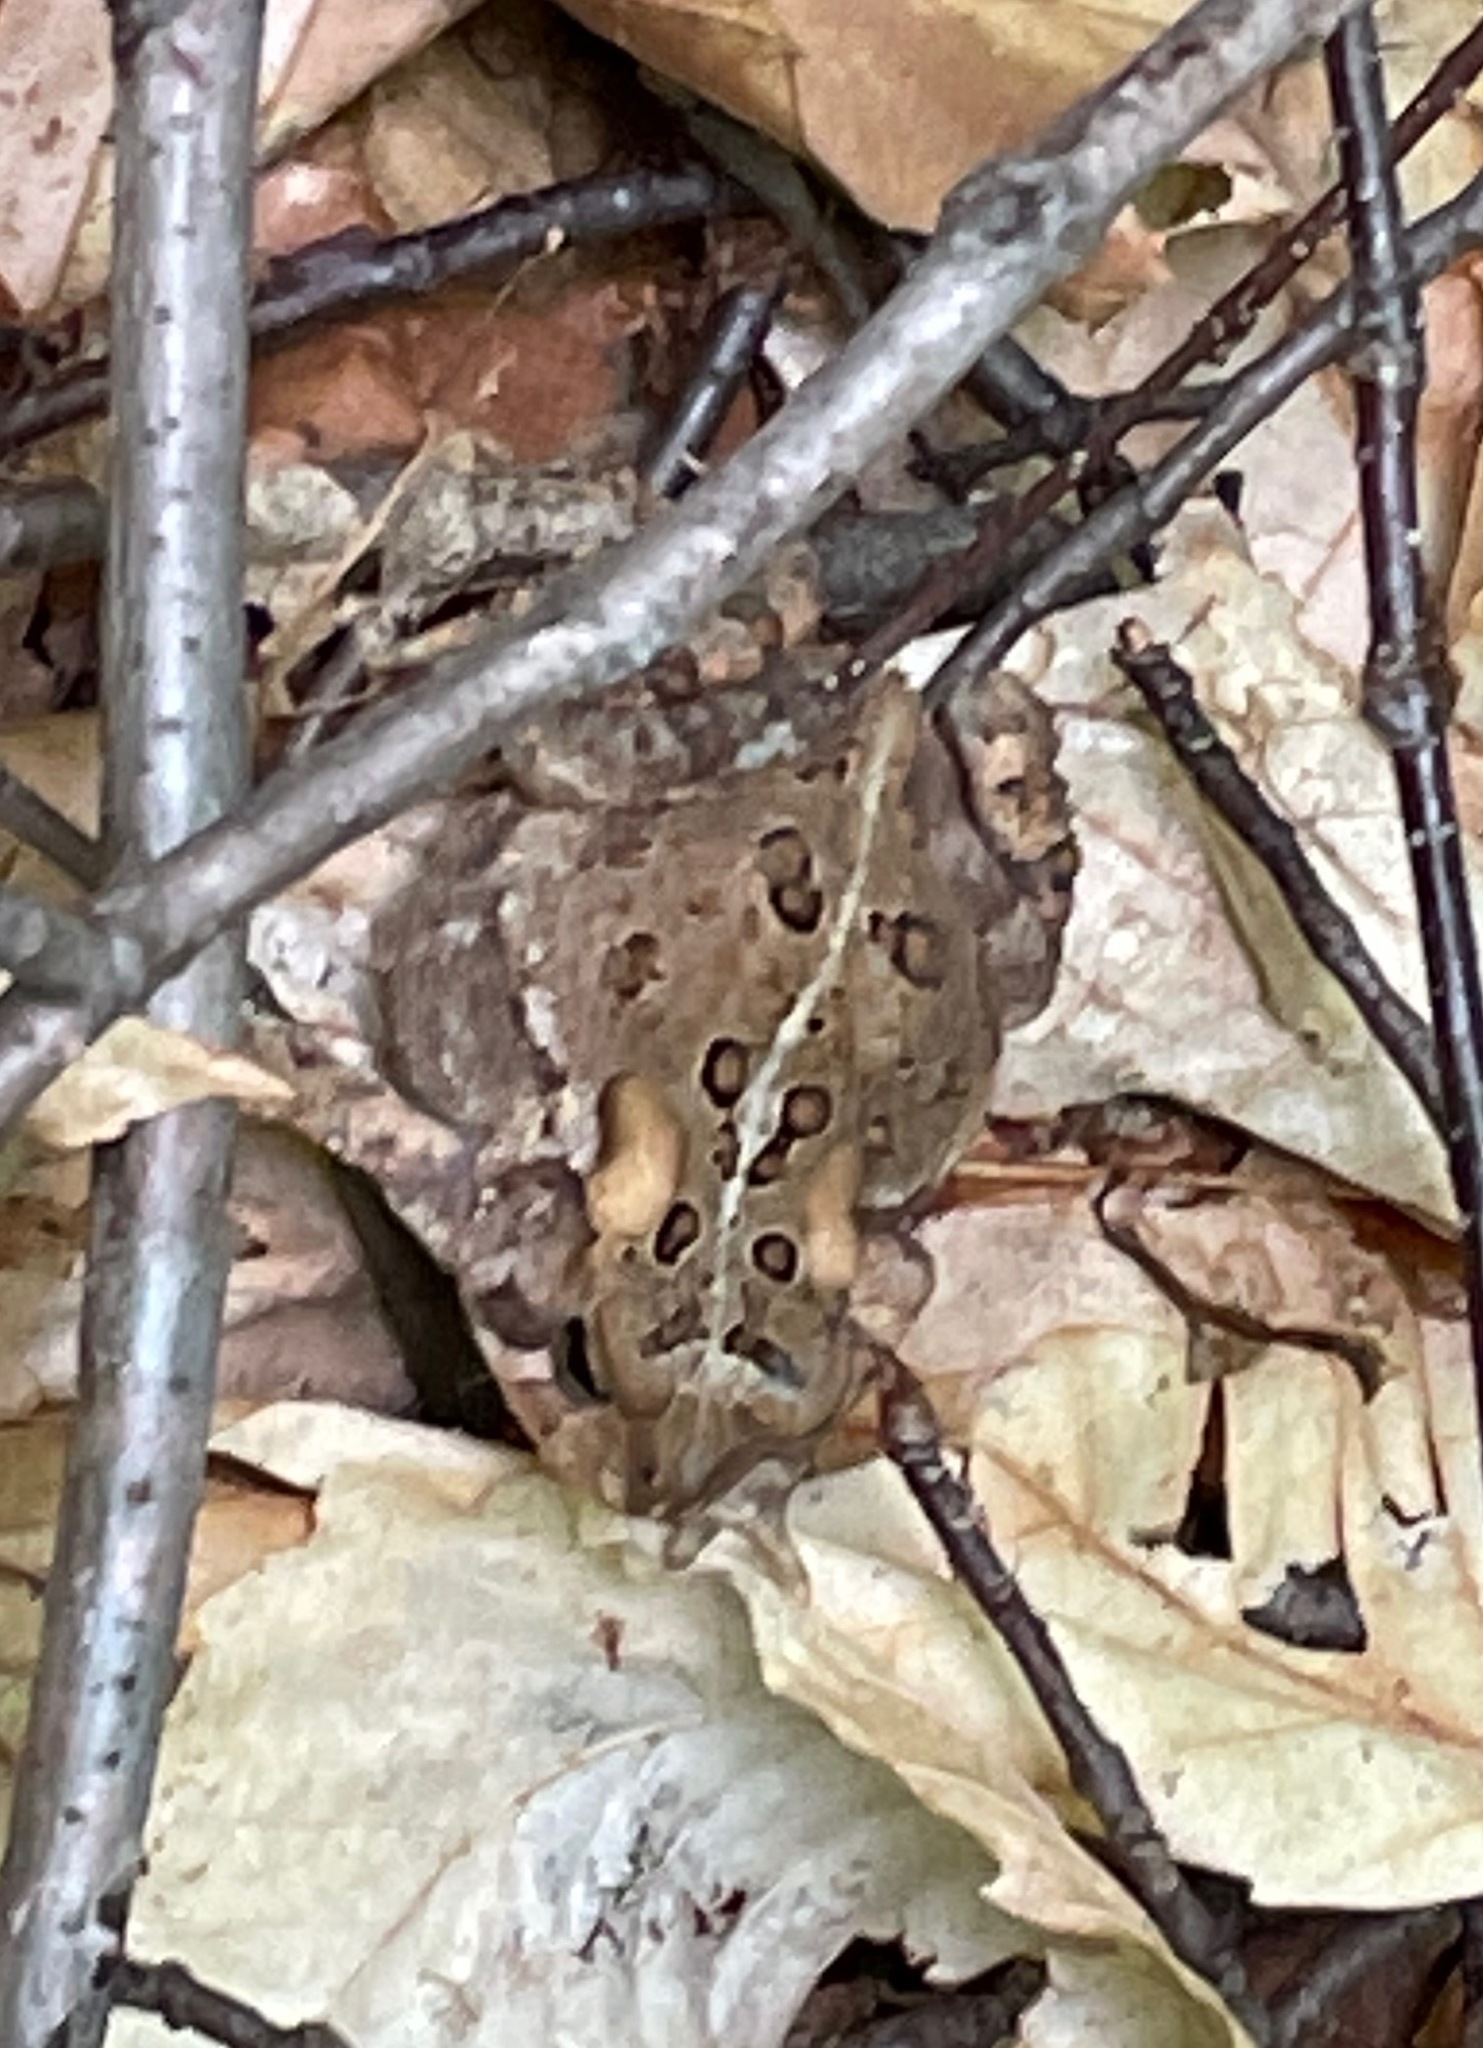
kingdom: Animalia
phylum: Chordata
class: Amphibia
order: Anura
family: Bufonidae
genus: Anaxyrus
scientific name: Anaxyrus americanus
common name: American toad
